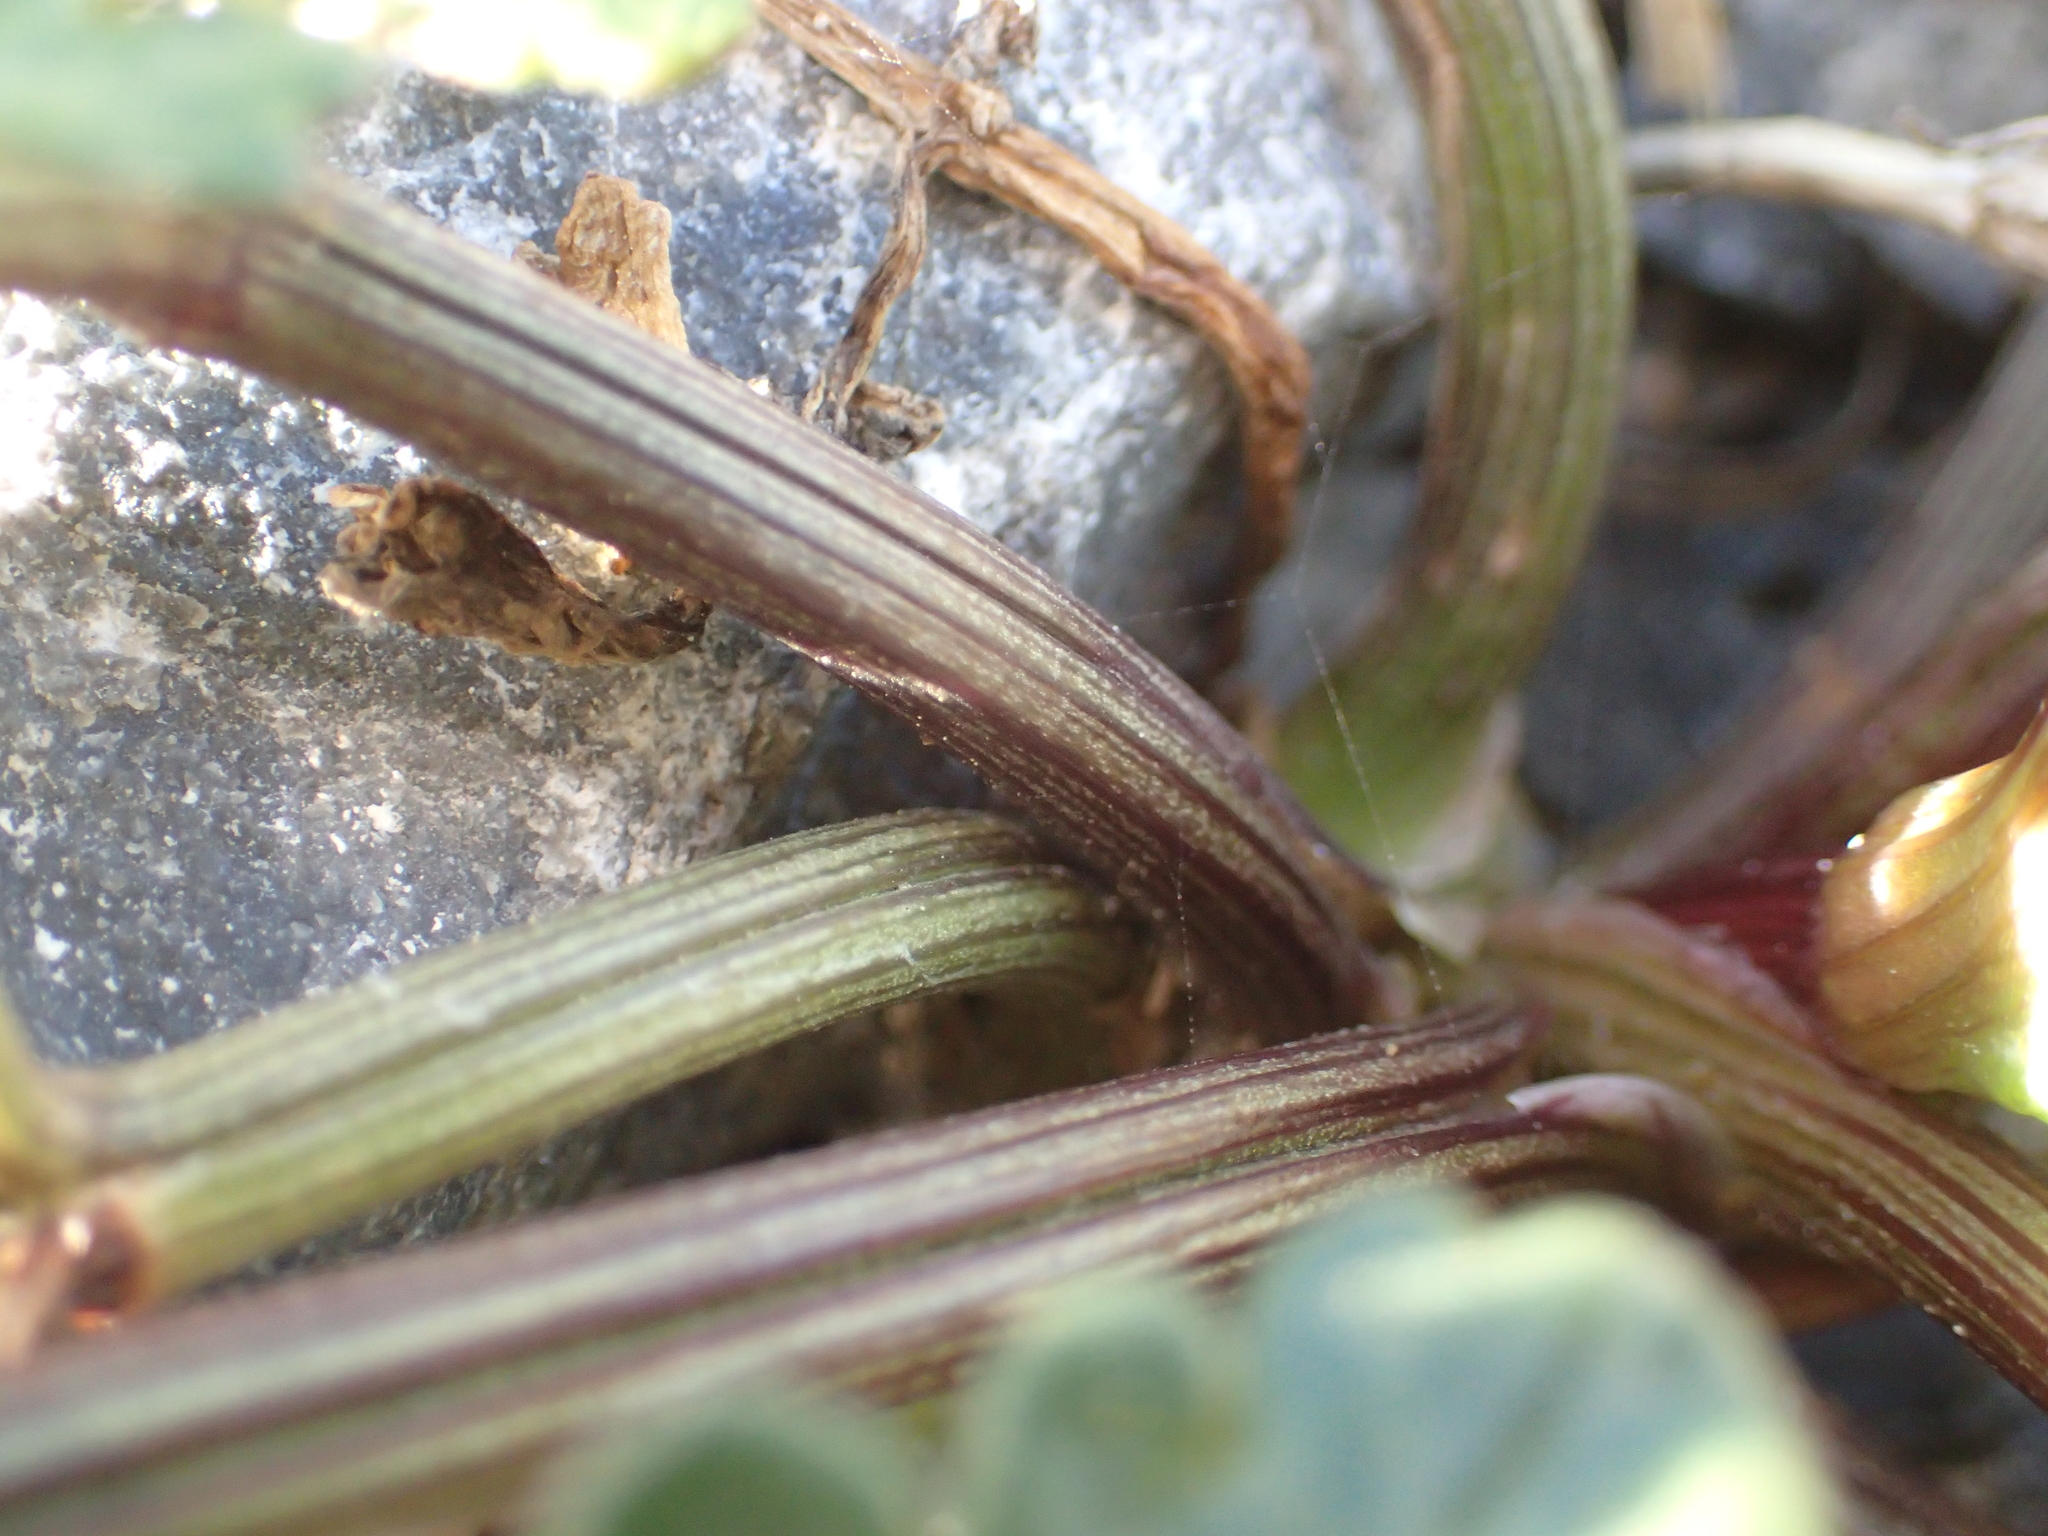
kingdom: Plantae
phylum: Tracheophyta
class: Magnoliopsida
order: Apiales
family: Apiaceae
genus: Apium
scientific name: Apium prostratum
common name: Prostrate marshwort
